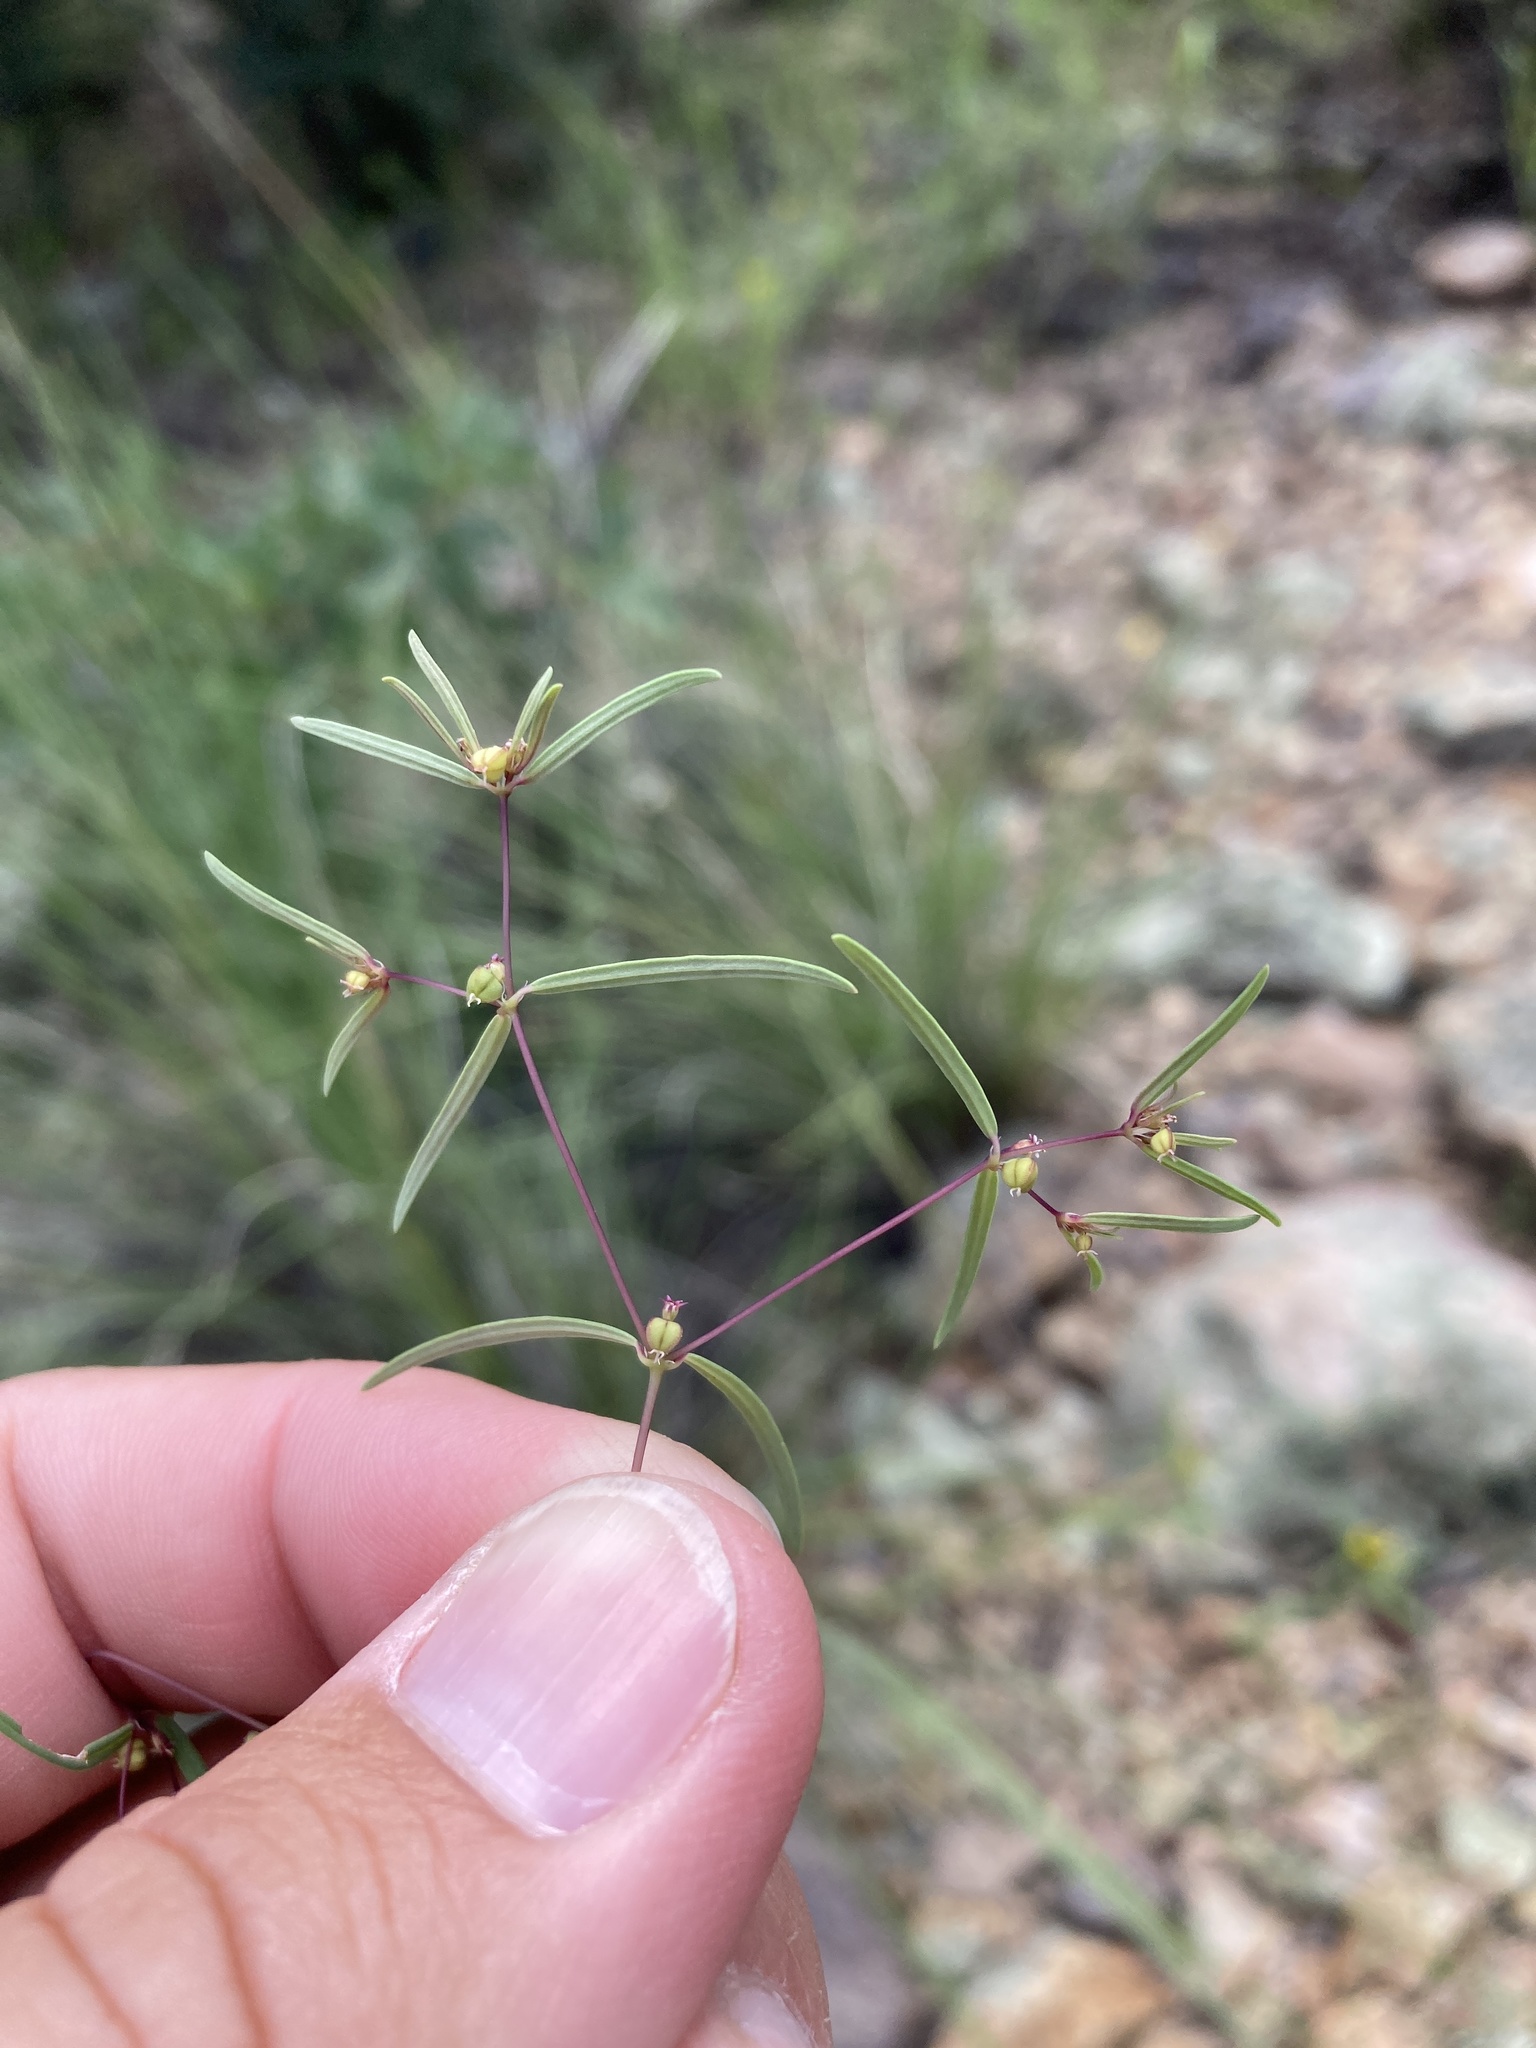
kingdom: Plantae
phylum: Tracheophyta
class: Magnoliopsida
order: Malpighiales
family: Euphorbiaceae
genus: Euphorbia
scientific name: Euphorbia revoluta
